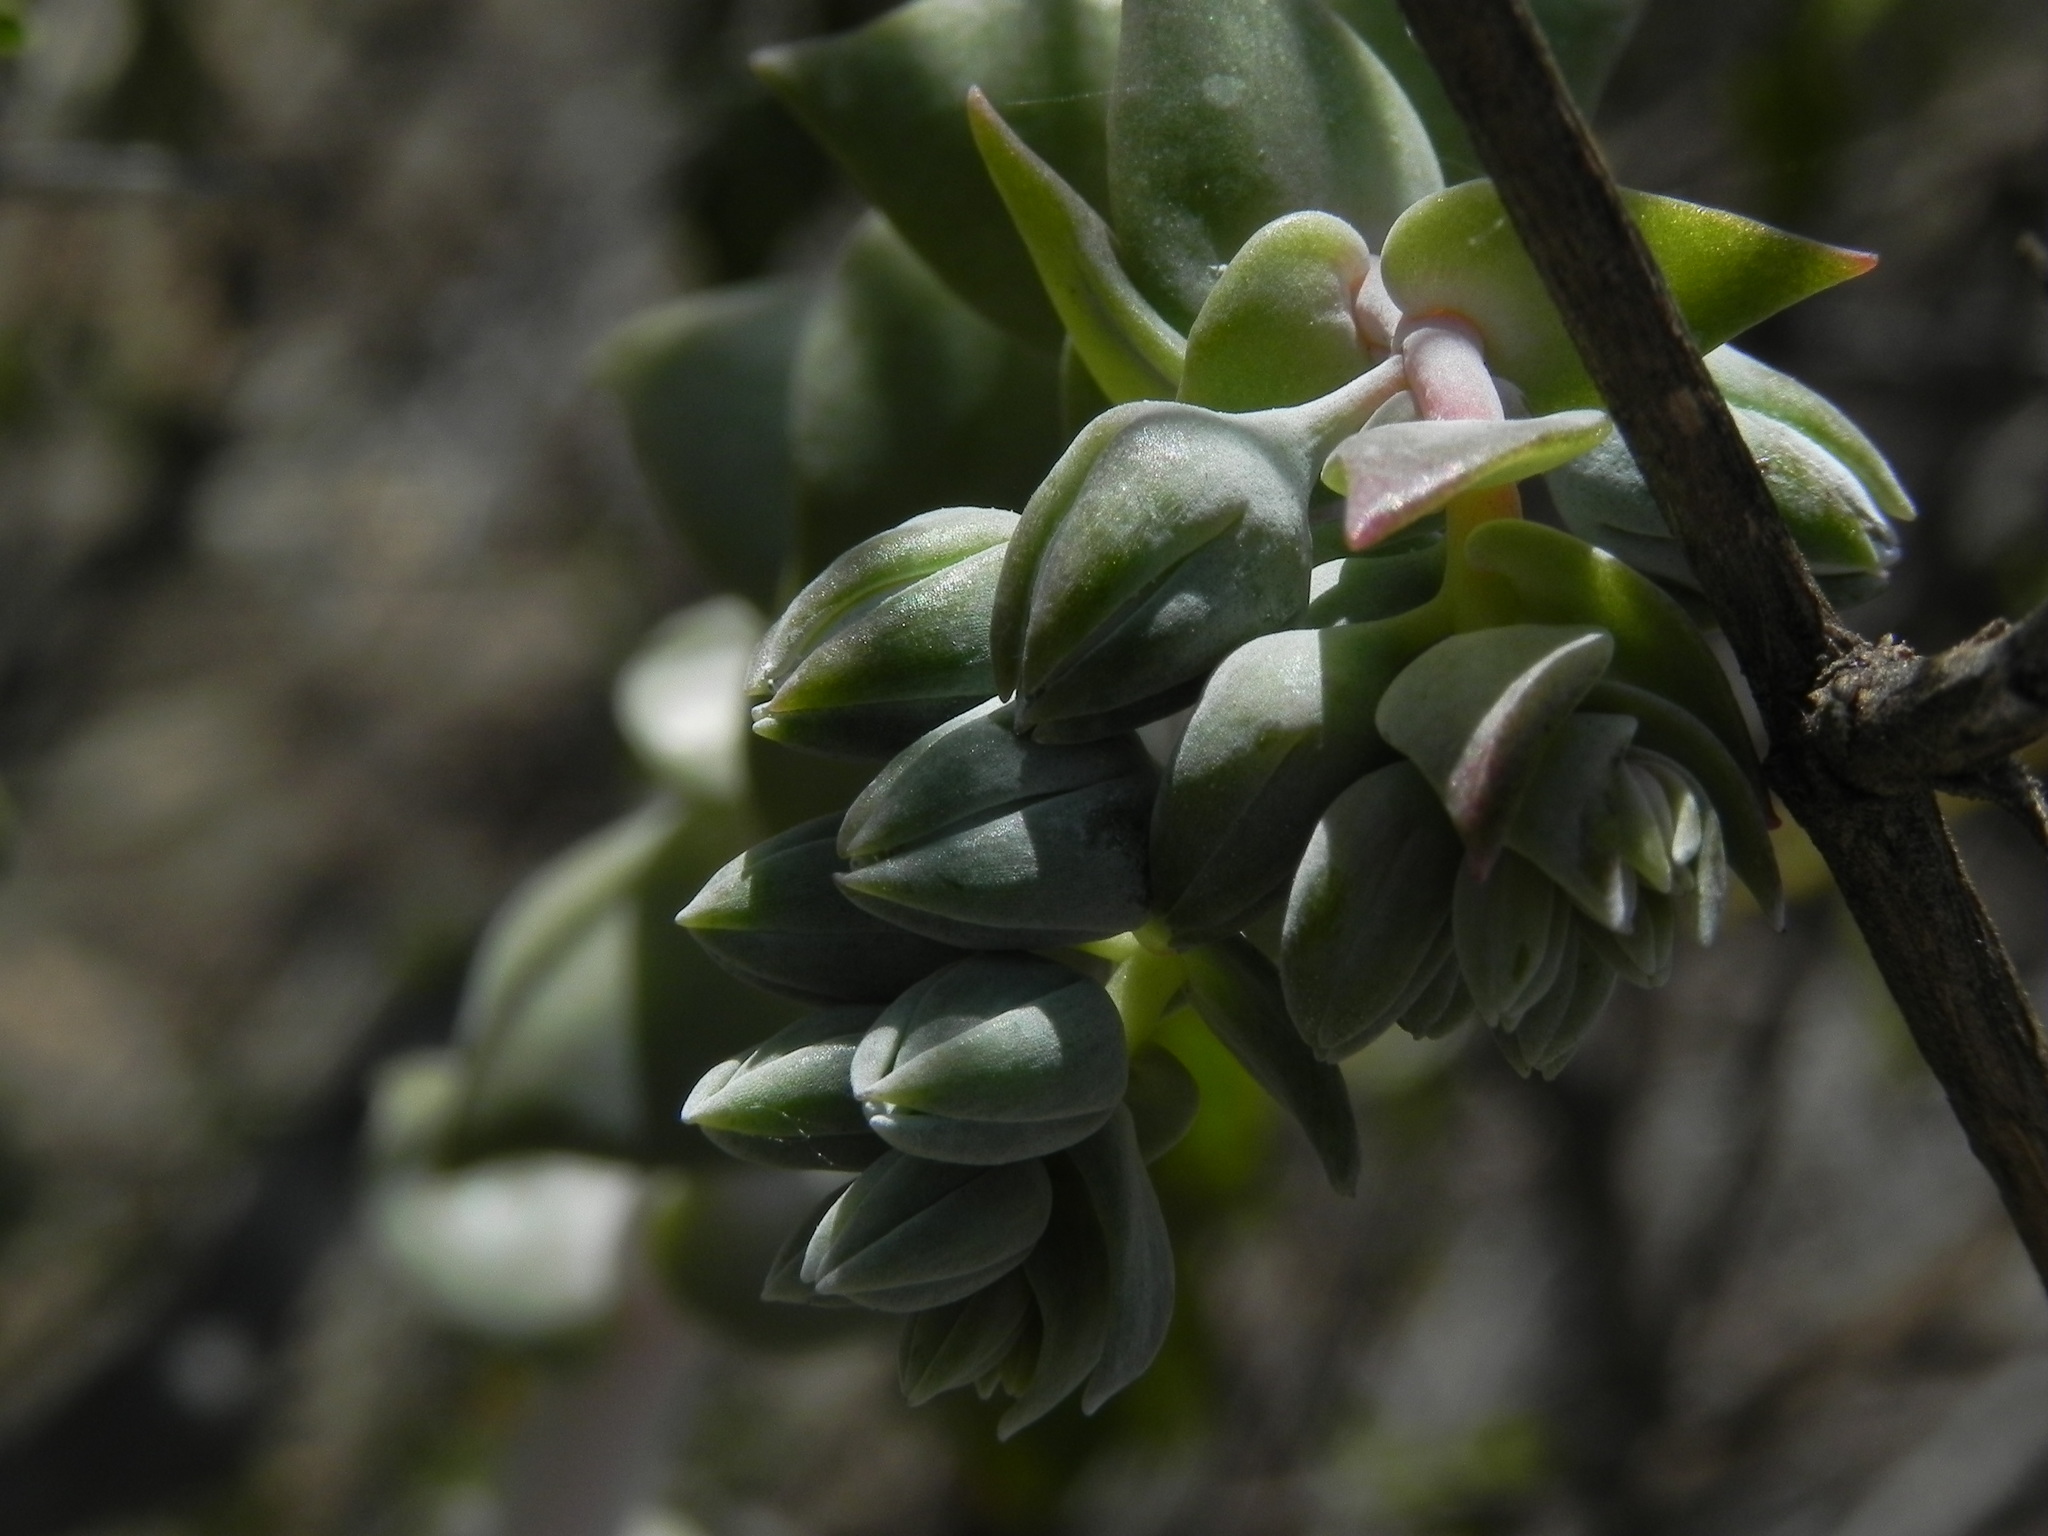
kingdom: Plantae
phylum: Tracheophyta
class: Magnoliopsida
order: Saxifragales
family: Crassulaceae
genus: Dudleya
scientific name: Dudleya pulverulenta
